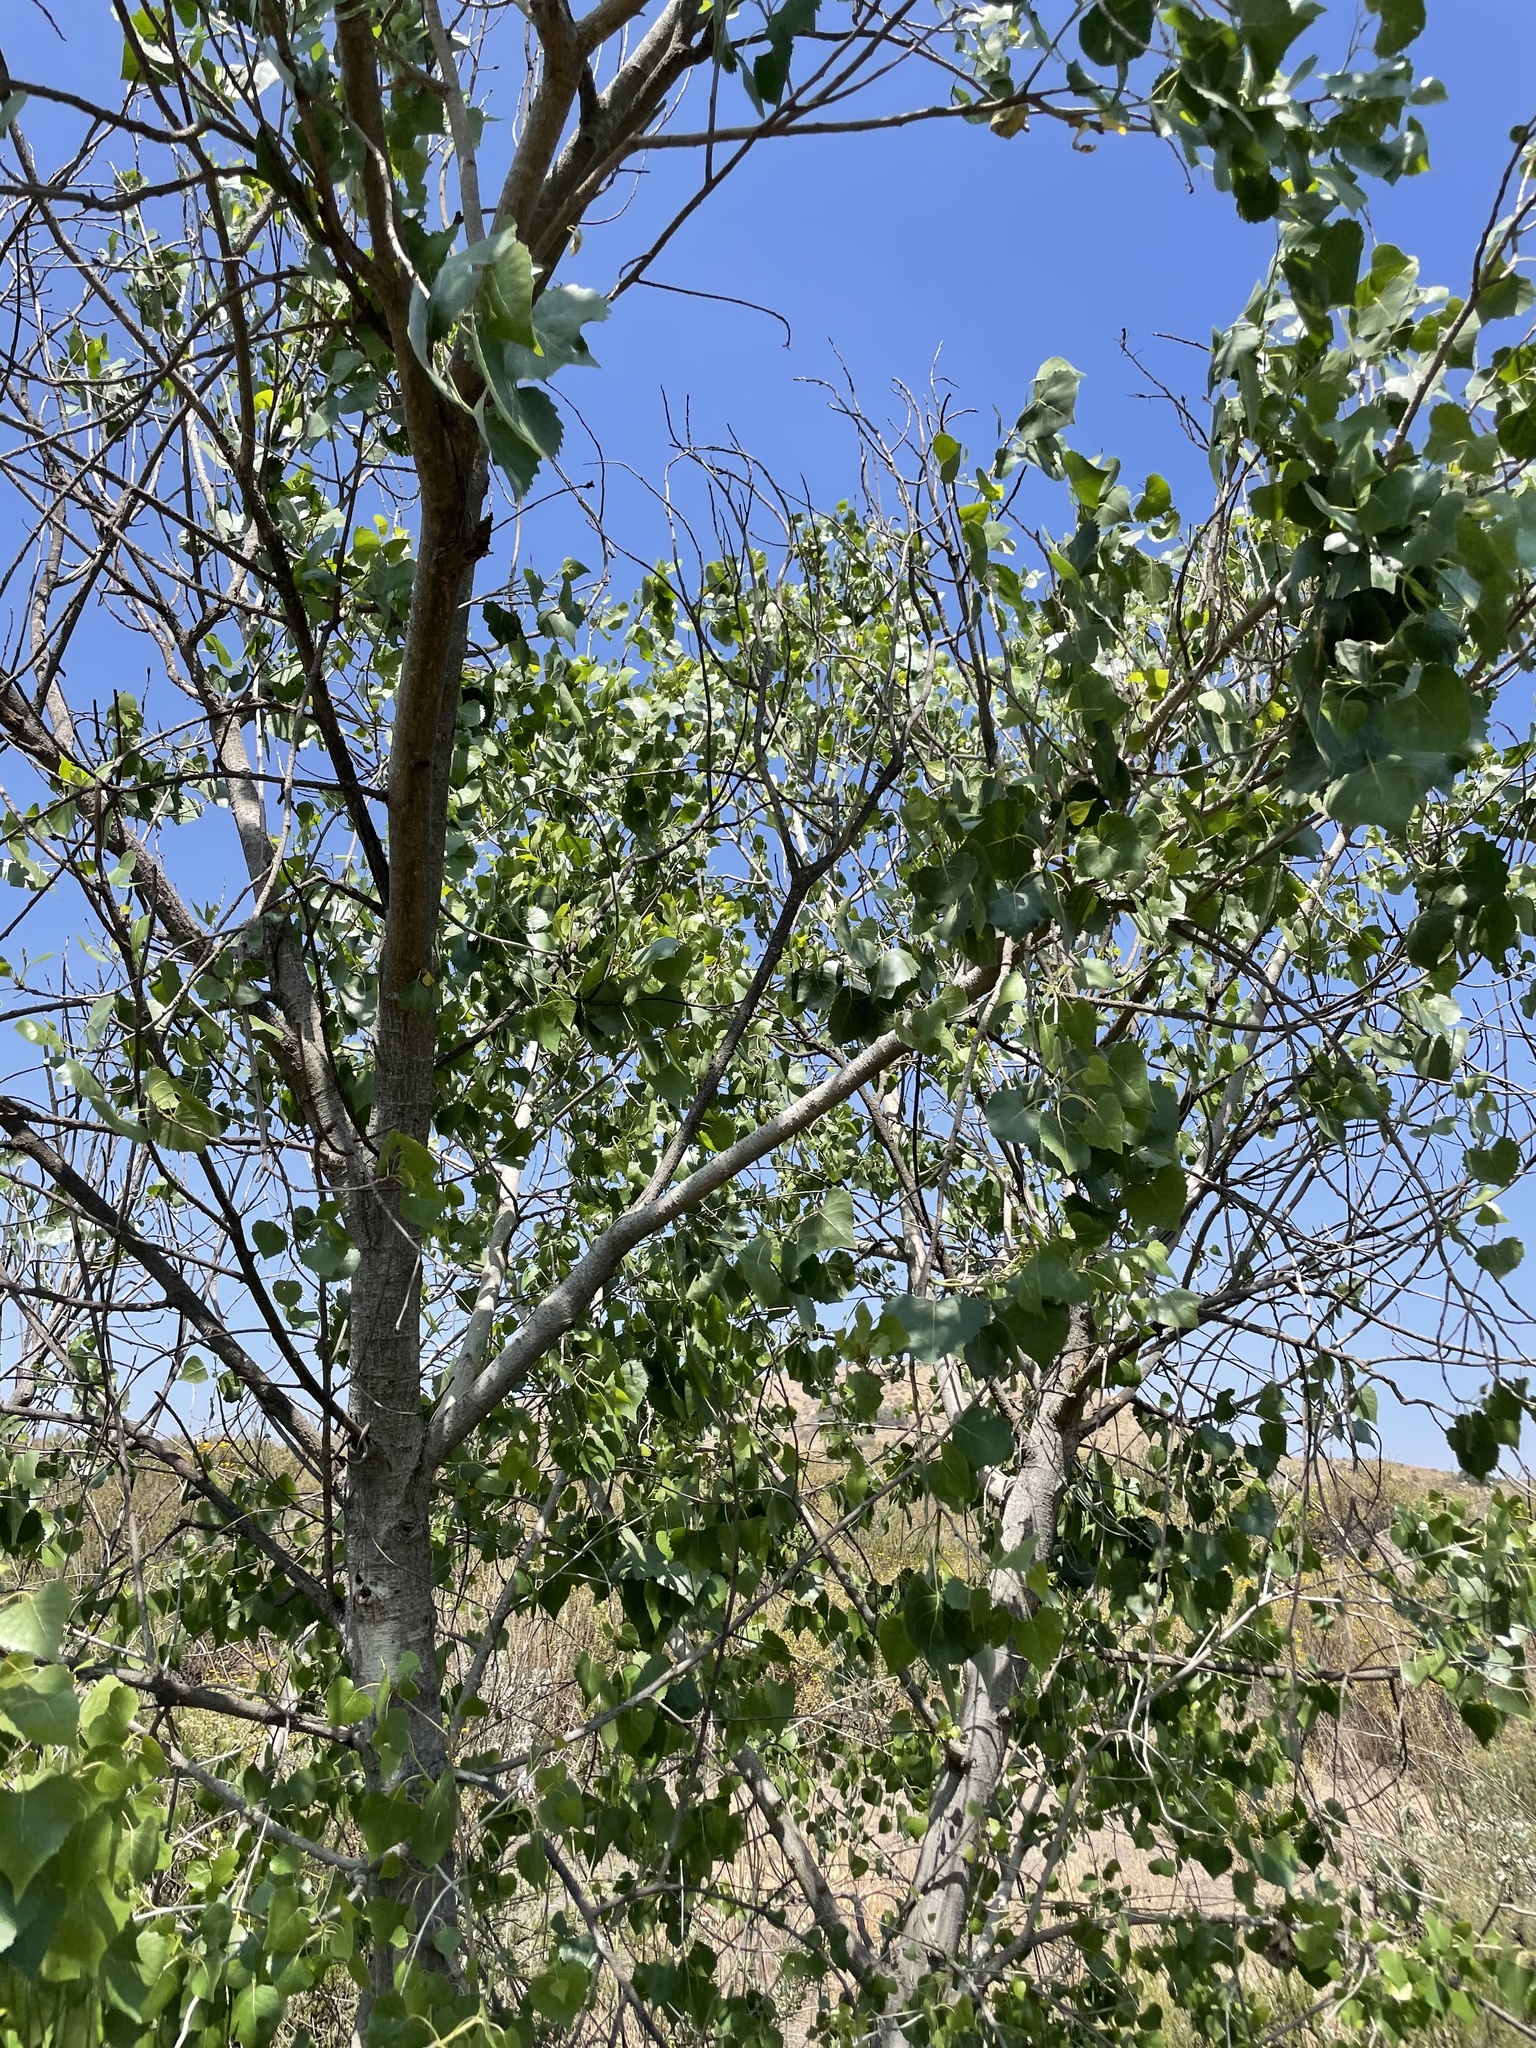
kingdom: Plantae
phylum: Tracheophyta
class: Magnoliopsida
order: Malpighiales
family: Salicaceae
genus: Populus
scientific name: Populus fremontii
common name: Fremont's cottonwood
